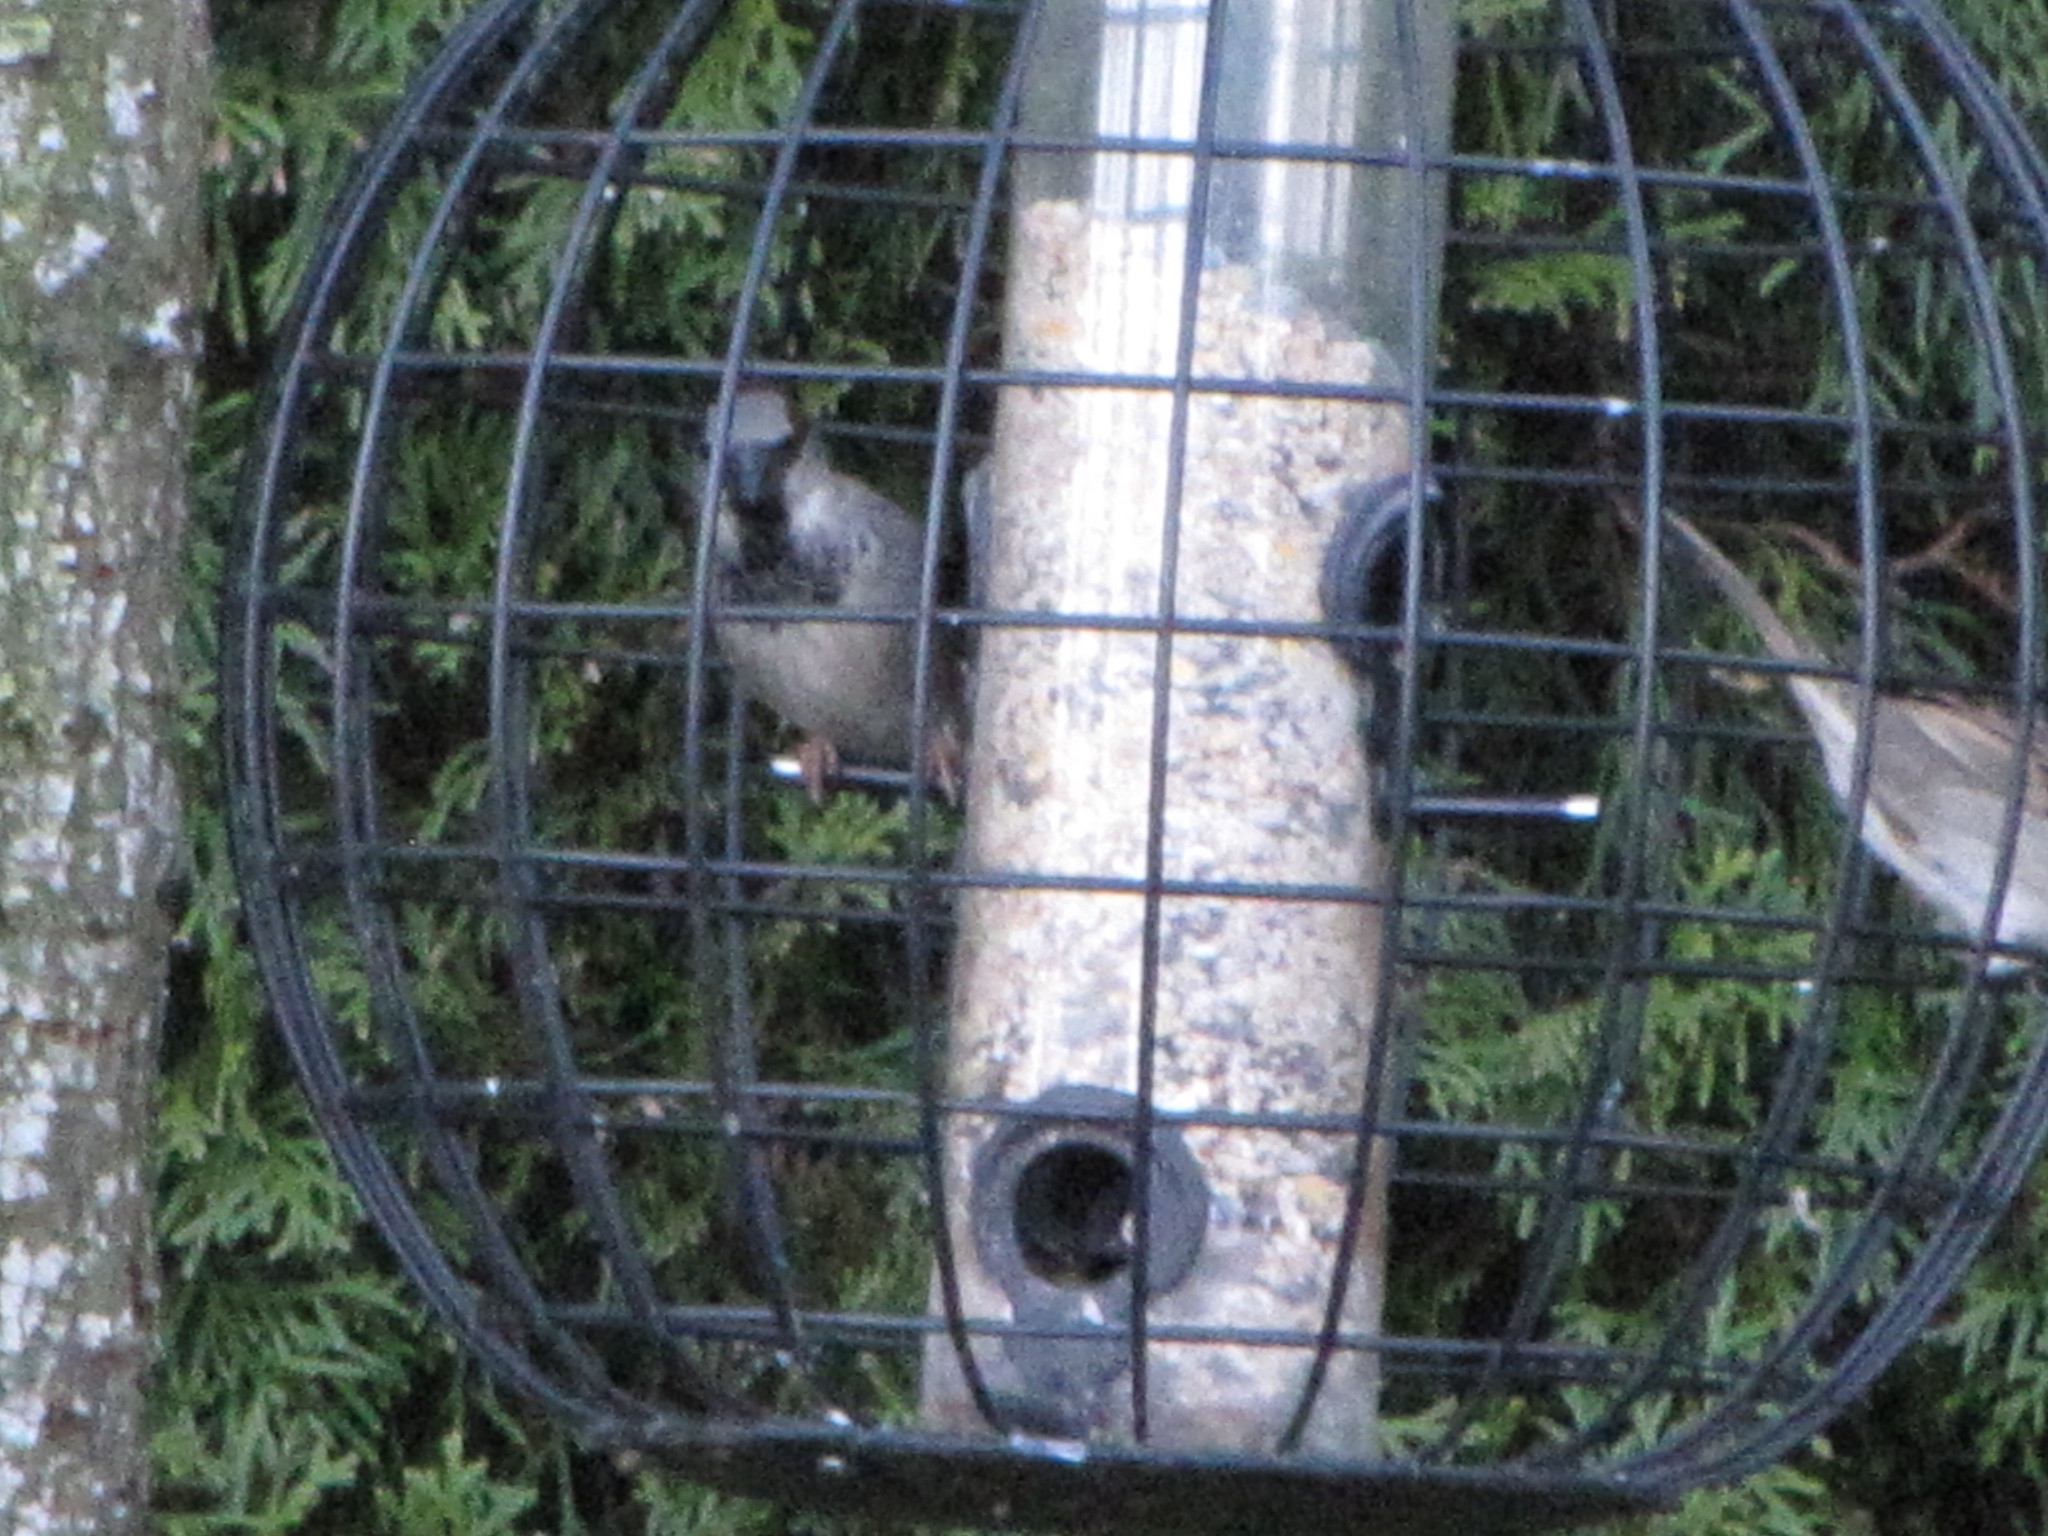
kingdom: Animalia
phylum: Chordata
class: Aves
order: Passeriformes
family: Passeridae
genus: Passer
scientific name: Passer domesticus
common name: House sparrow
